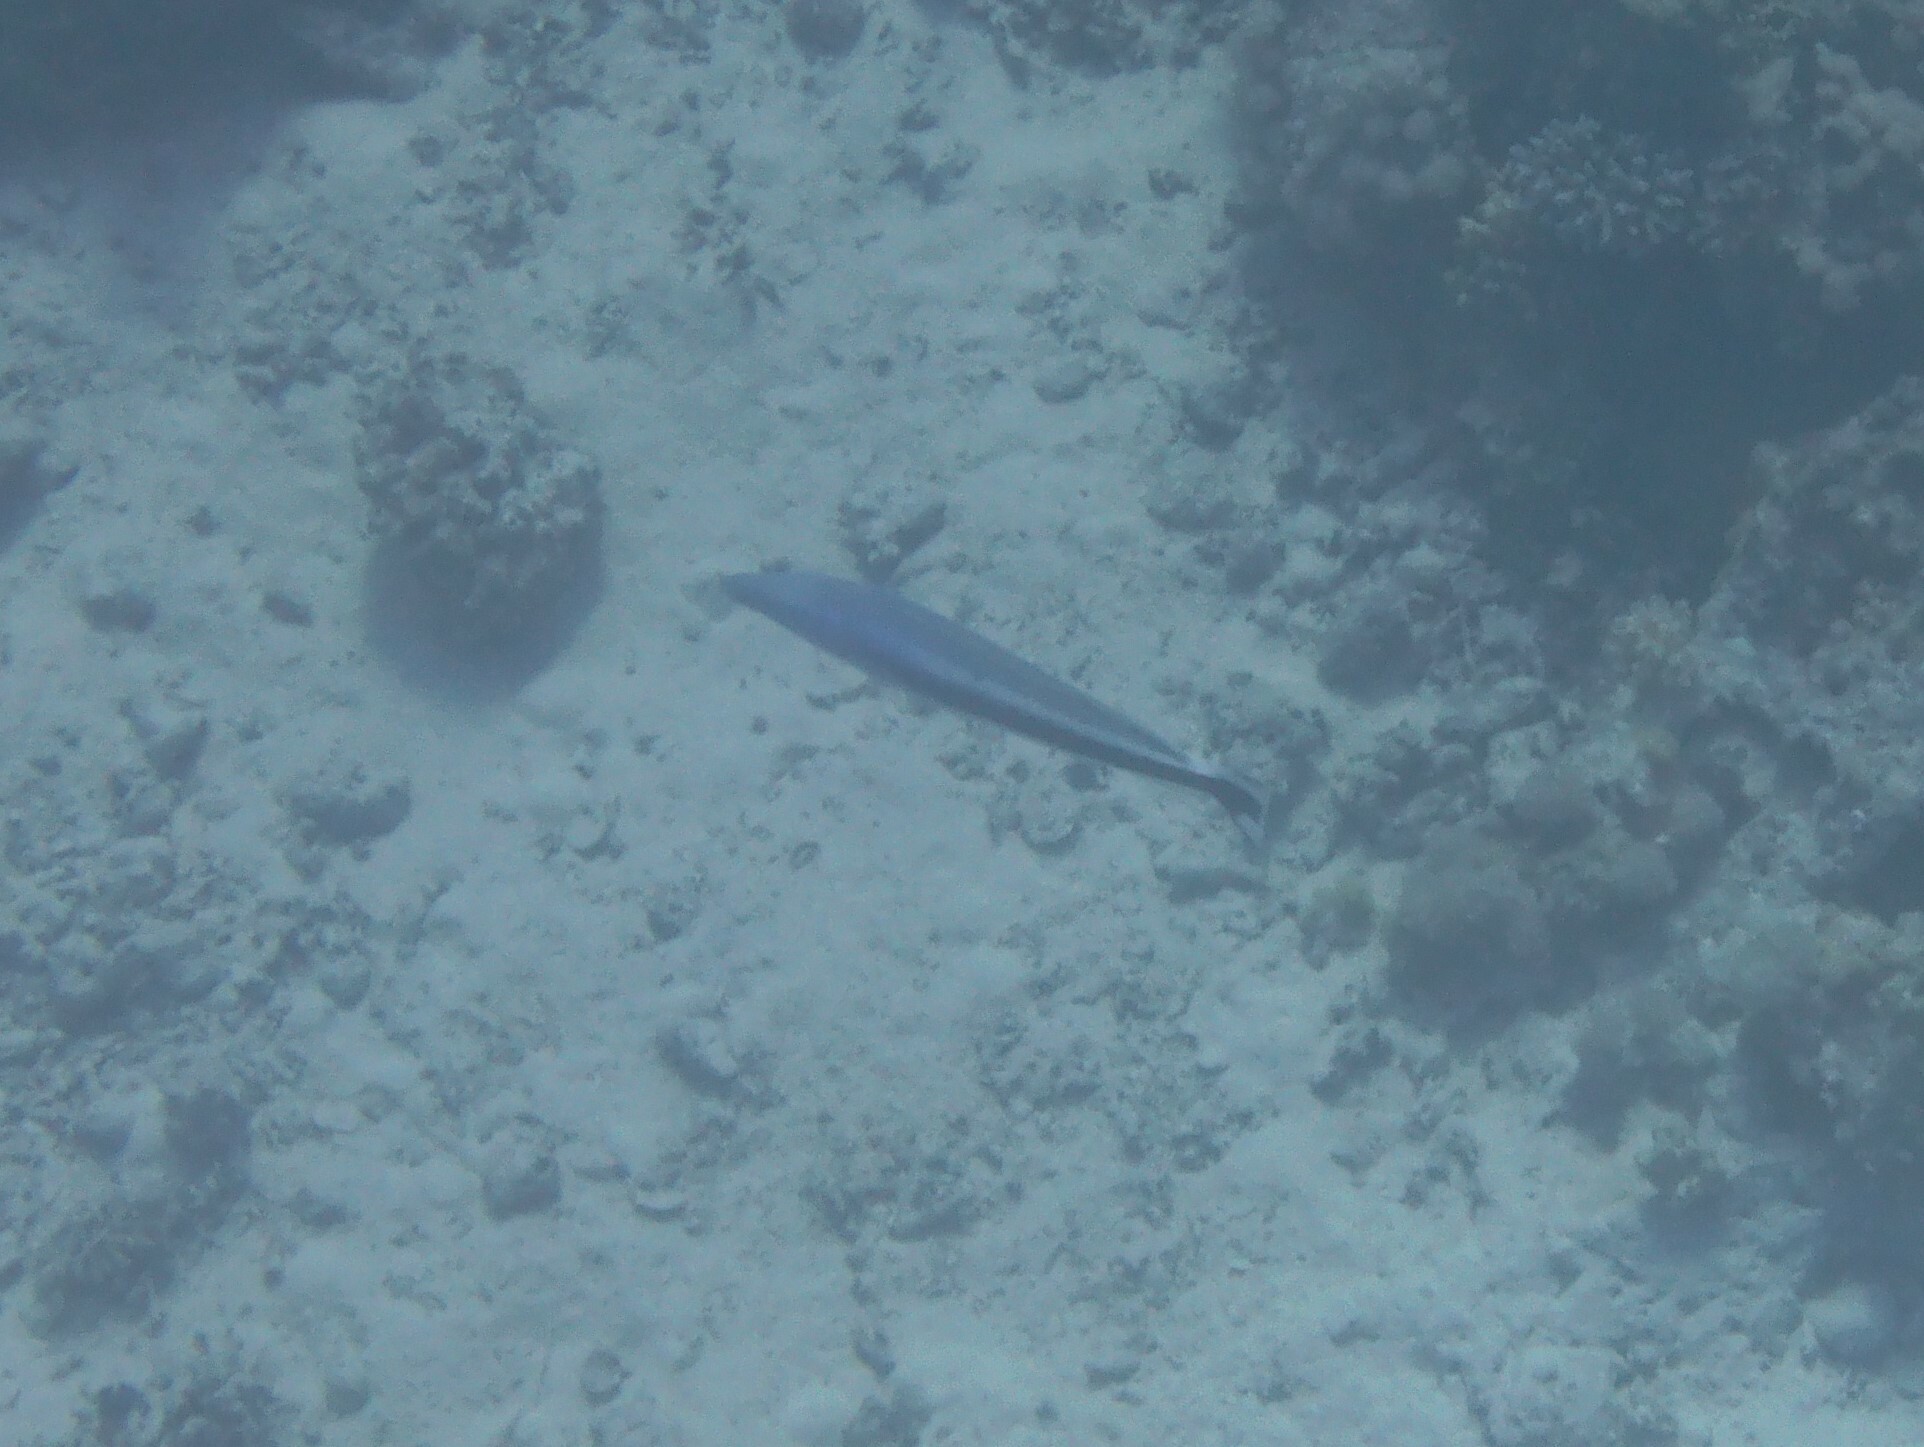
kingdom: Animalia
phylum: Chordata
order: Perciformes
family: Malacanthidae
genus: Malacanthus
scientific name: Malacanthus latovittatus
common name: Blue blanquillo
